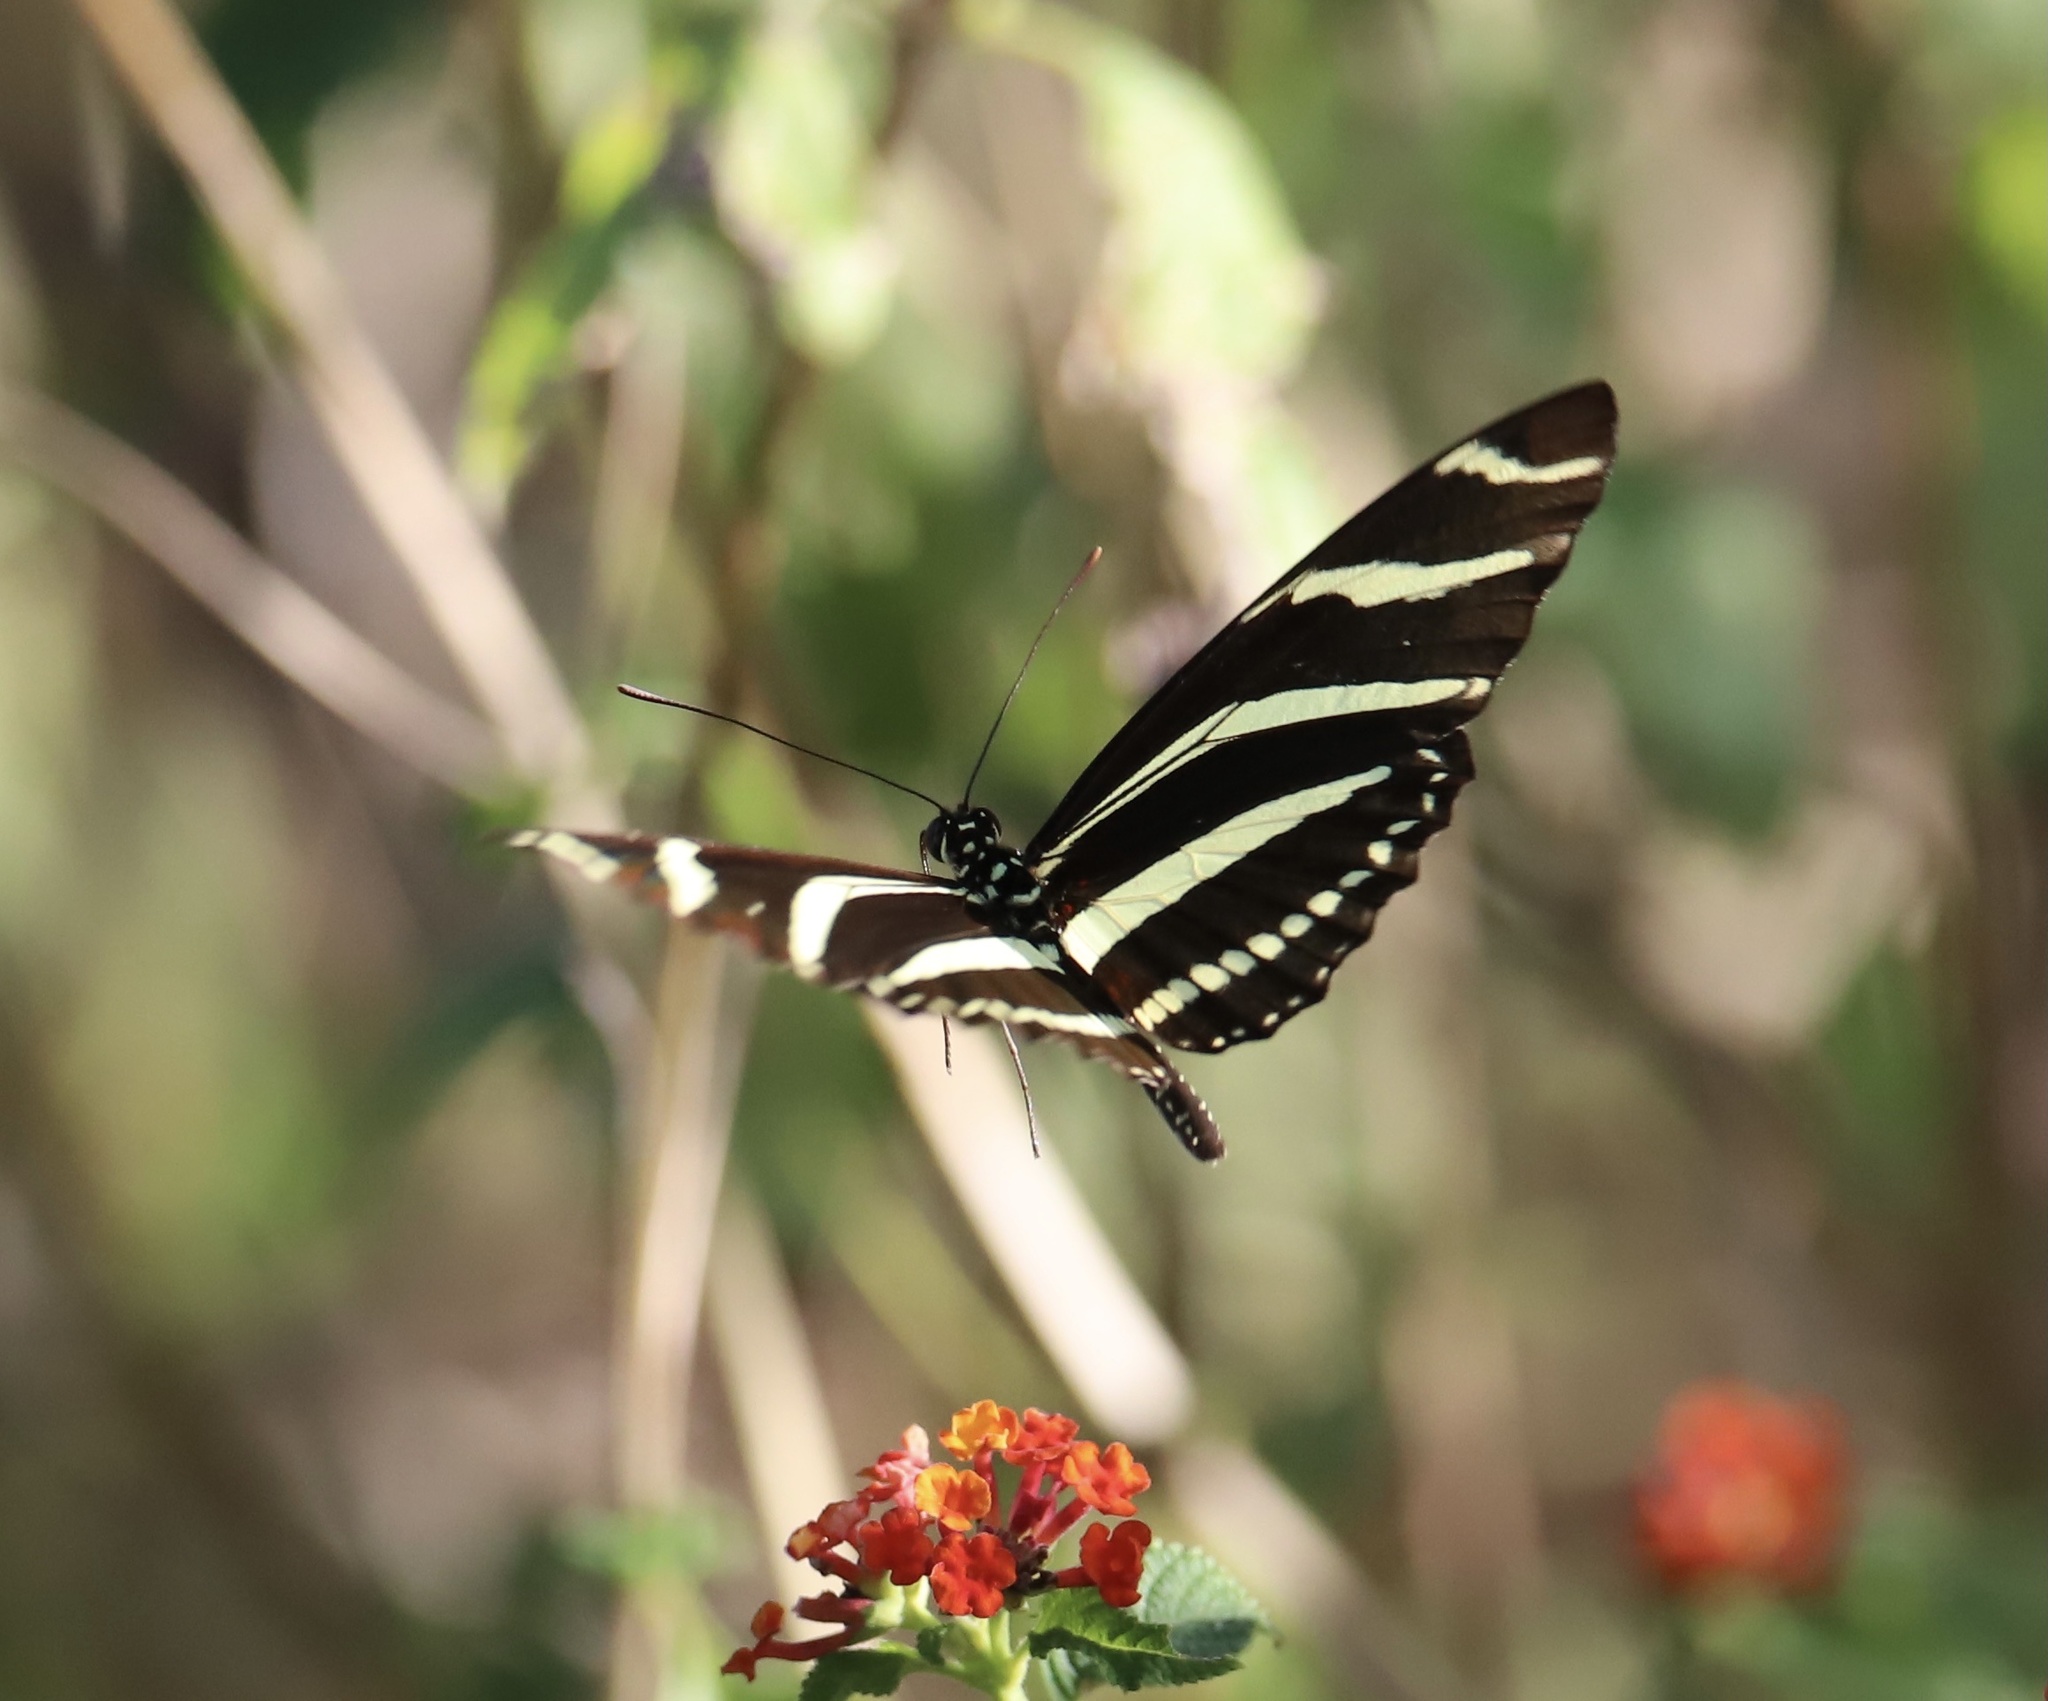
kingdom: Animalia
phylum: Arthropoda
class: Insecta
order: Lepidoptera
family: Nymphalidae
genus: Heliconius
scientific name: Heliconius charithonia
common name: Zebra long wing
